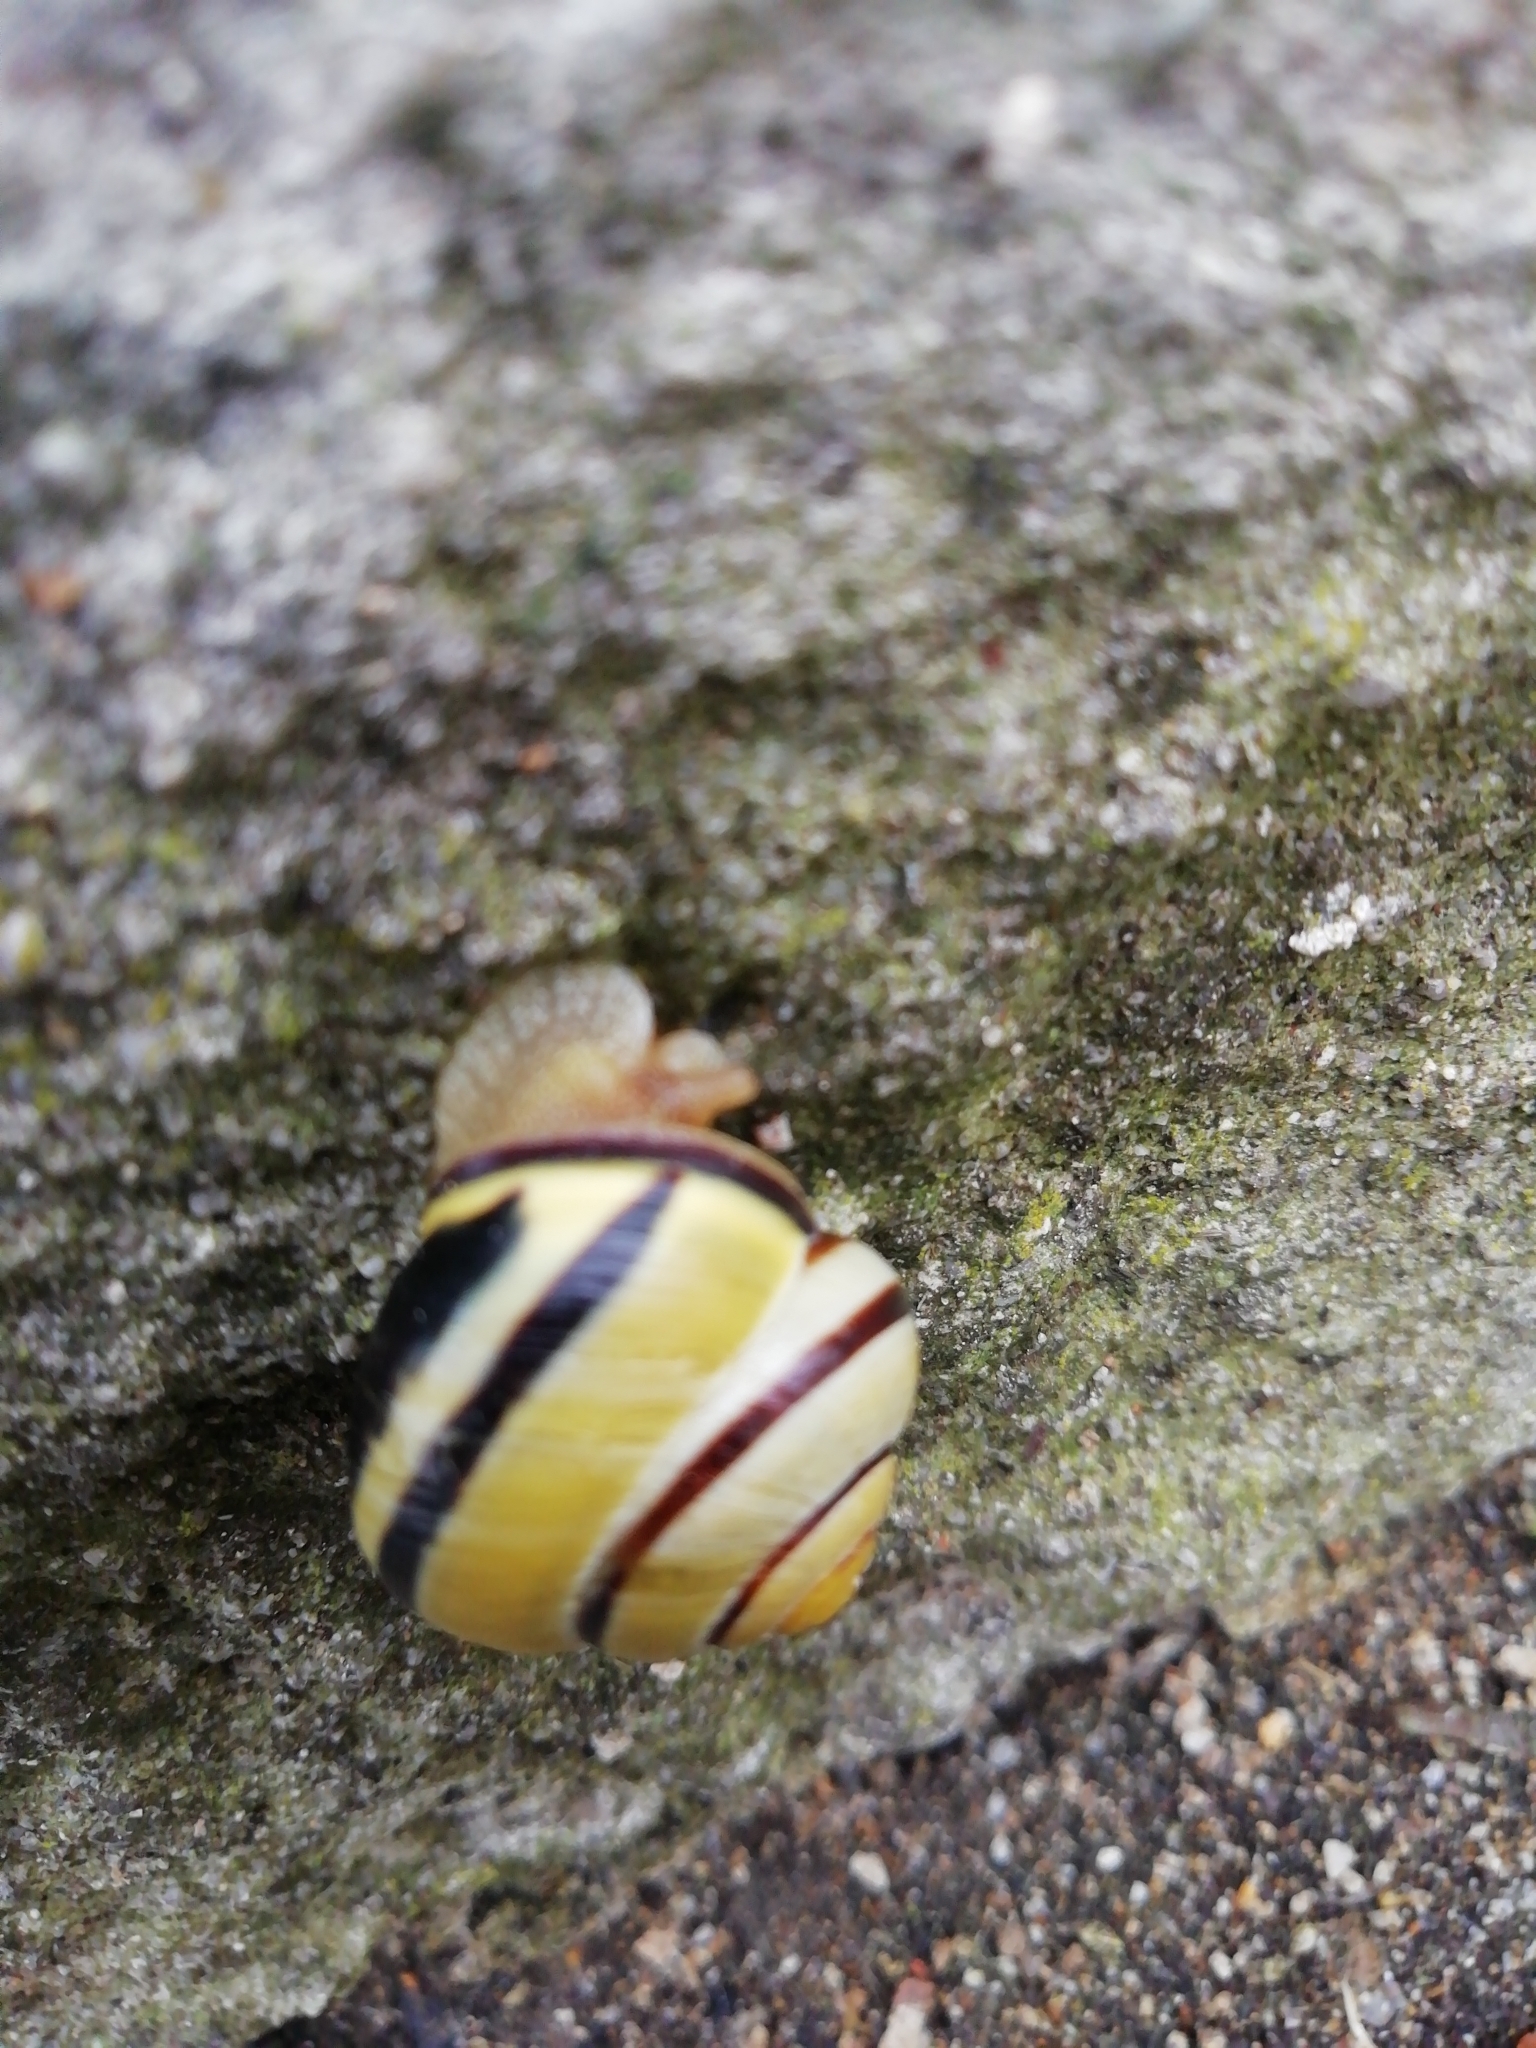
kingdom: Animalia
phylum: Mollusca
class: Gastropoda
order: Stylommatophora
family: Helicidae
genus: Cepaea
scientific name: Cepaea nemoralis
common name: Grovesnail
